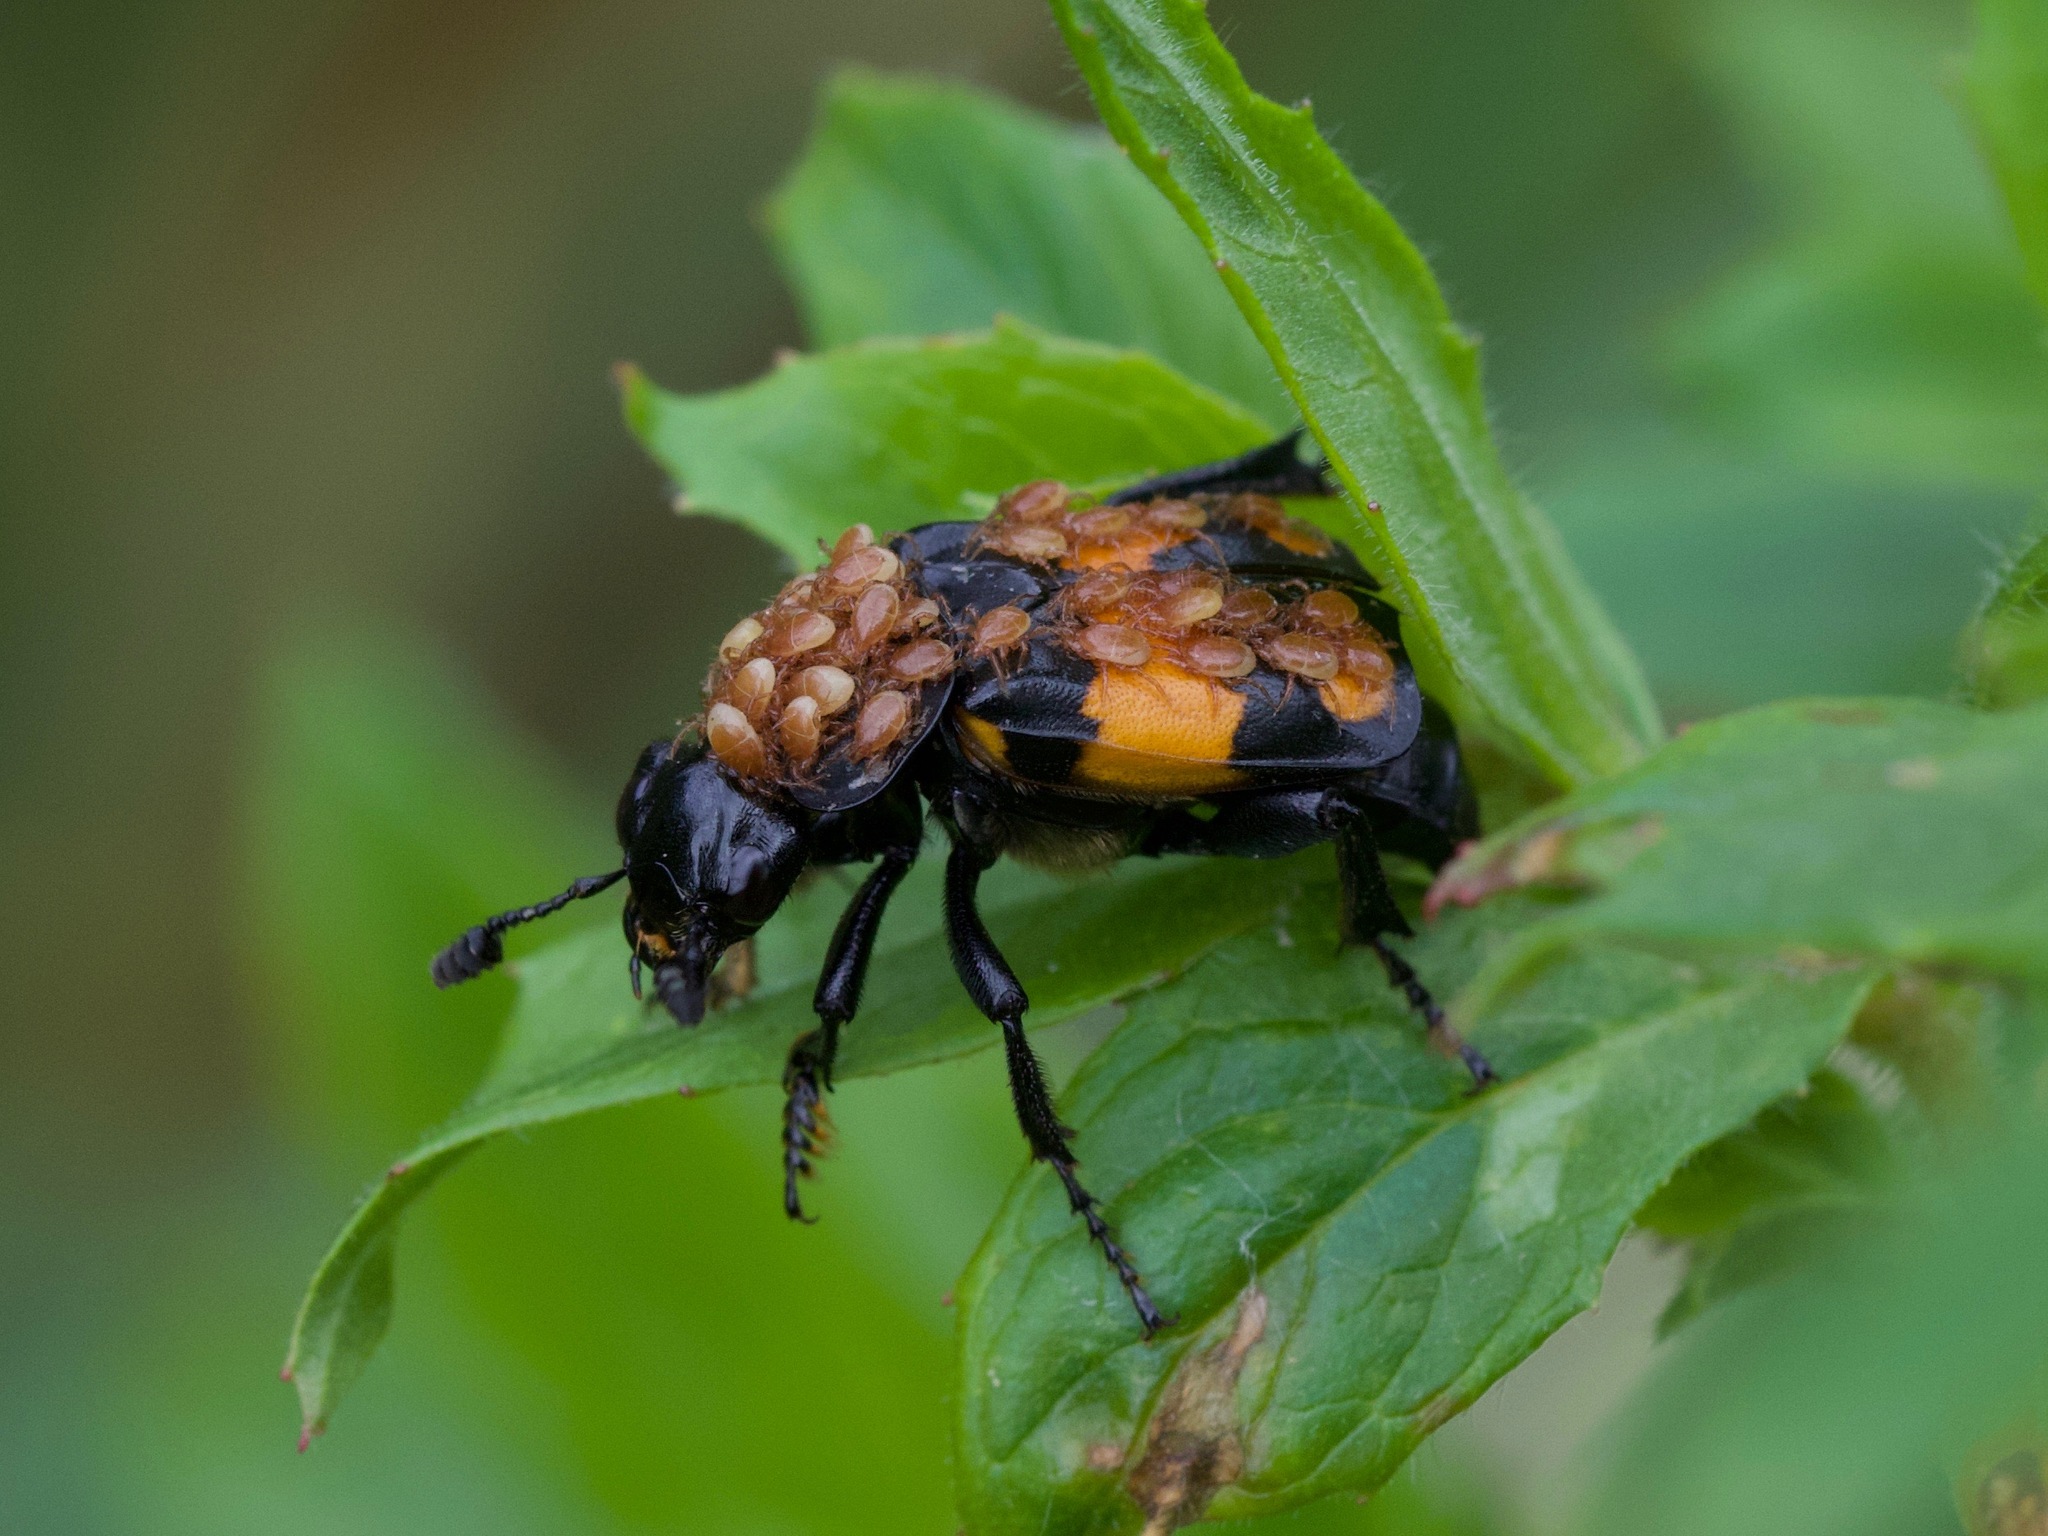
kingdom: Animalia
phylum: Arthropoda
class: Insecta
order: Coleoptera
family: Staphylinidae
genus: Nicrophorus
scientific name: Nicrophorus vespilloides
